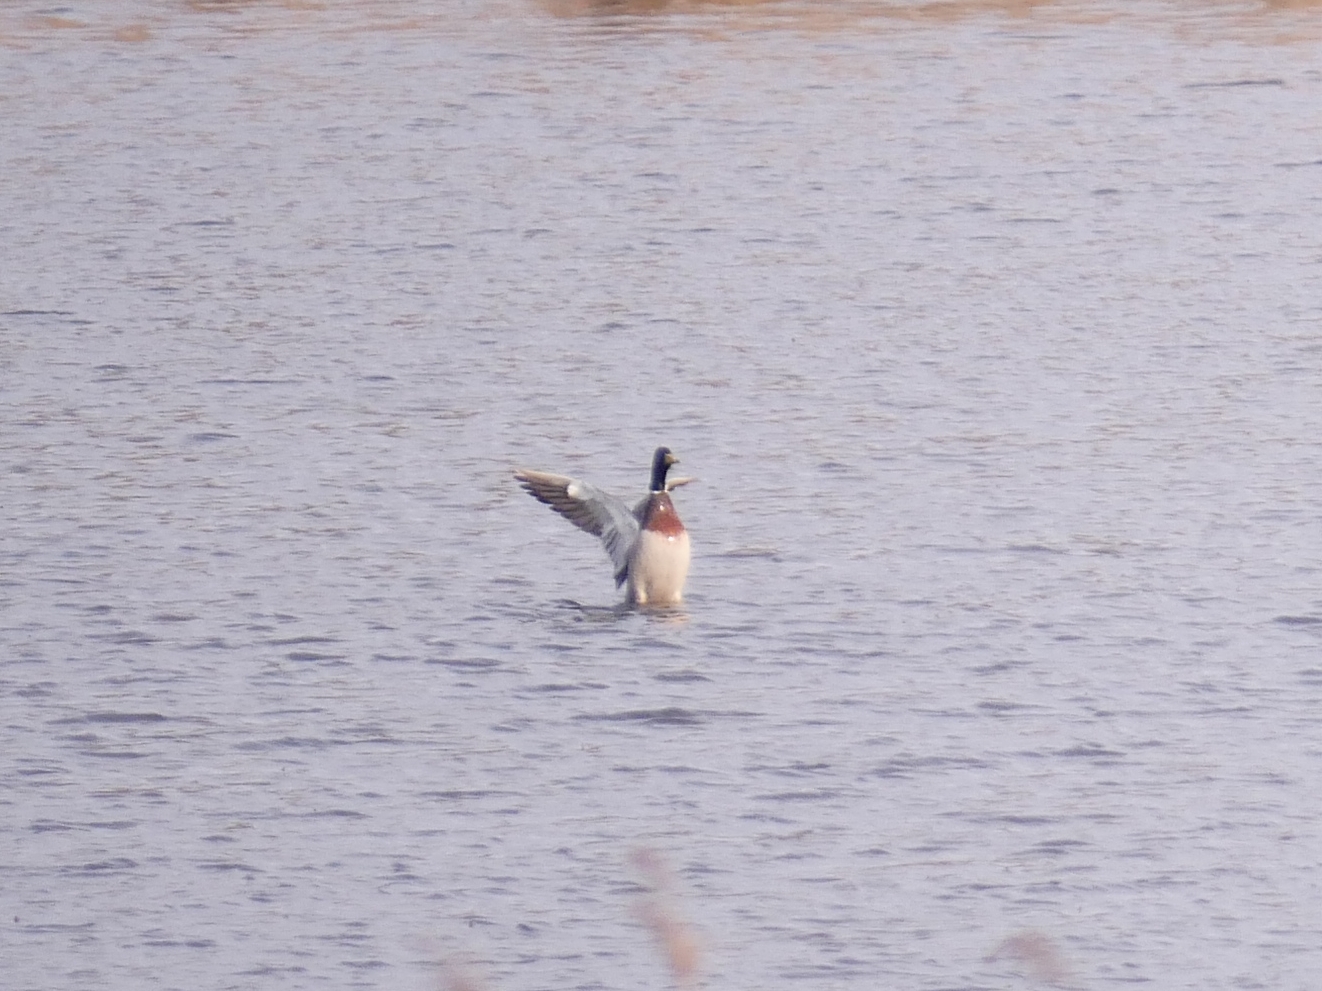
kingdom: Animalia
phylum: Chordata
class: Aves
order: Anseriformes
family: Anatidae
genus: Anas
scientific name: Anas platyrhynchos
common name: Mallard
